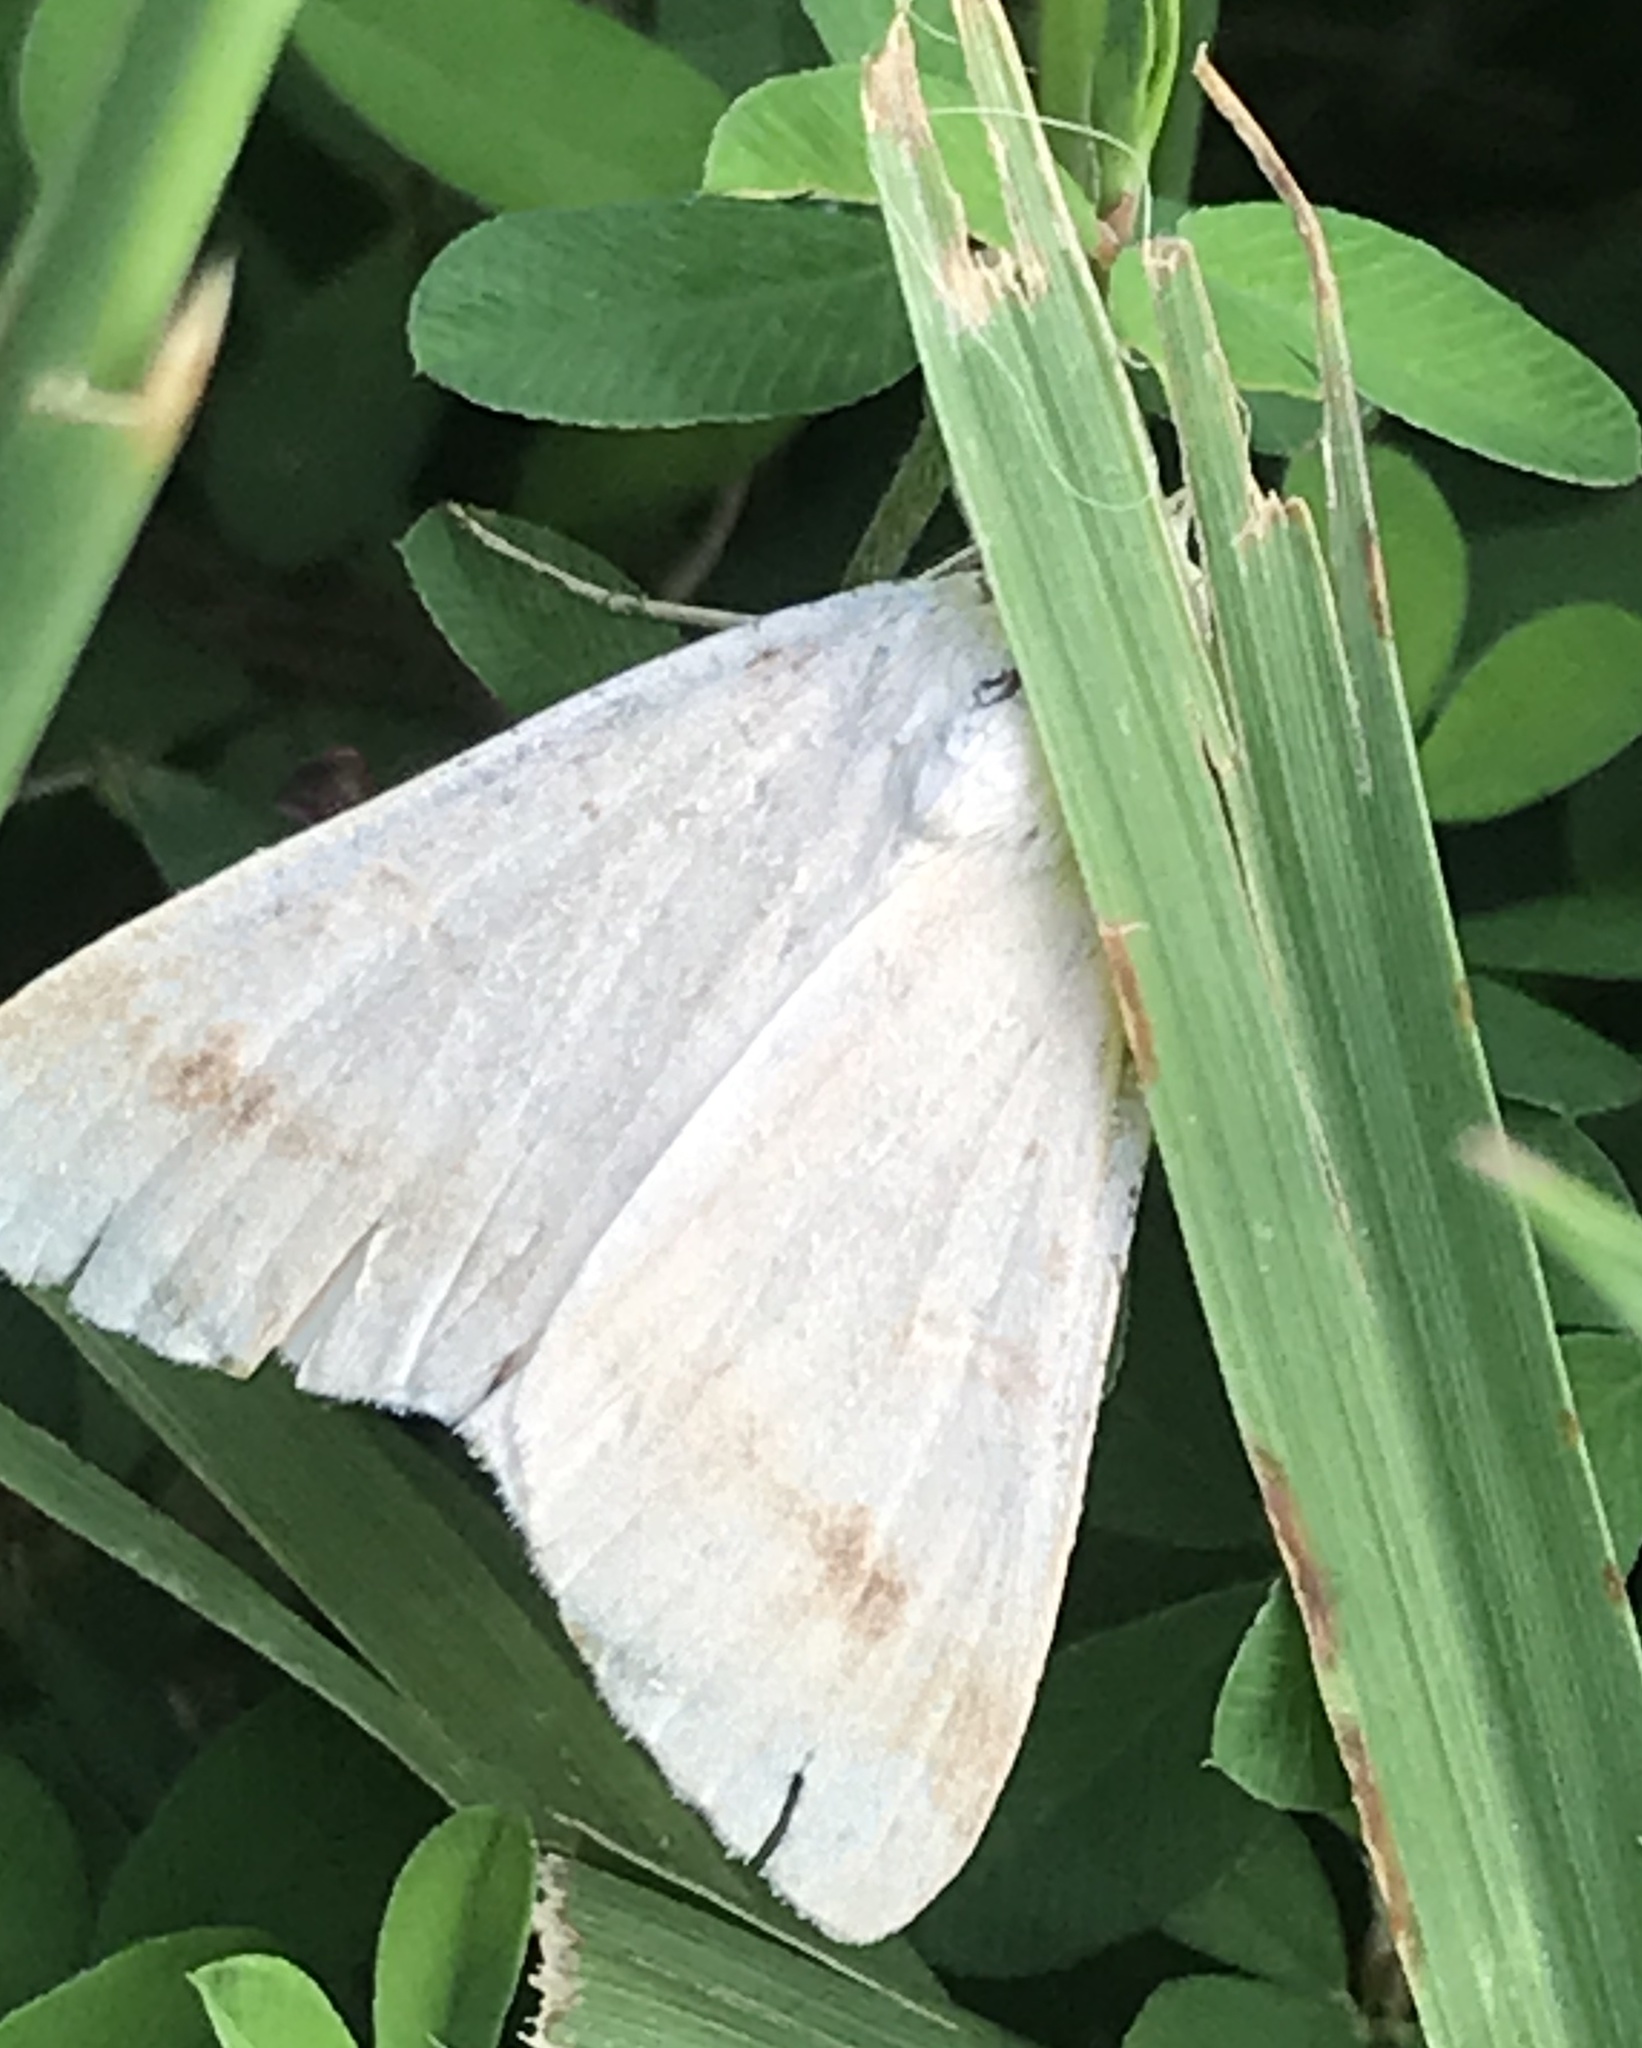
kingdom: Animalia
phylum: Arthropoda
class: Insecta
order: Lepidoptera
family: Erebidae
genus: Caenurgia
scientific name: Caenurgia chloropha
